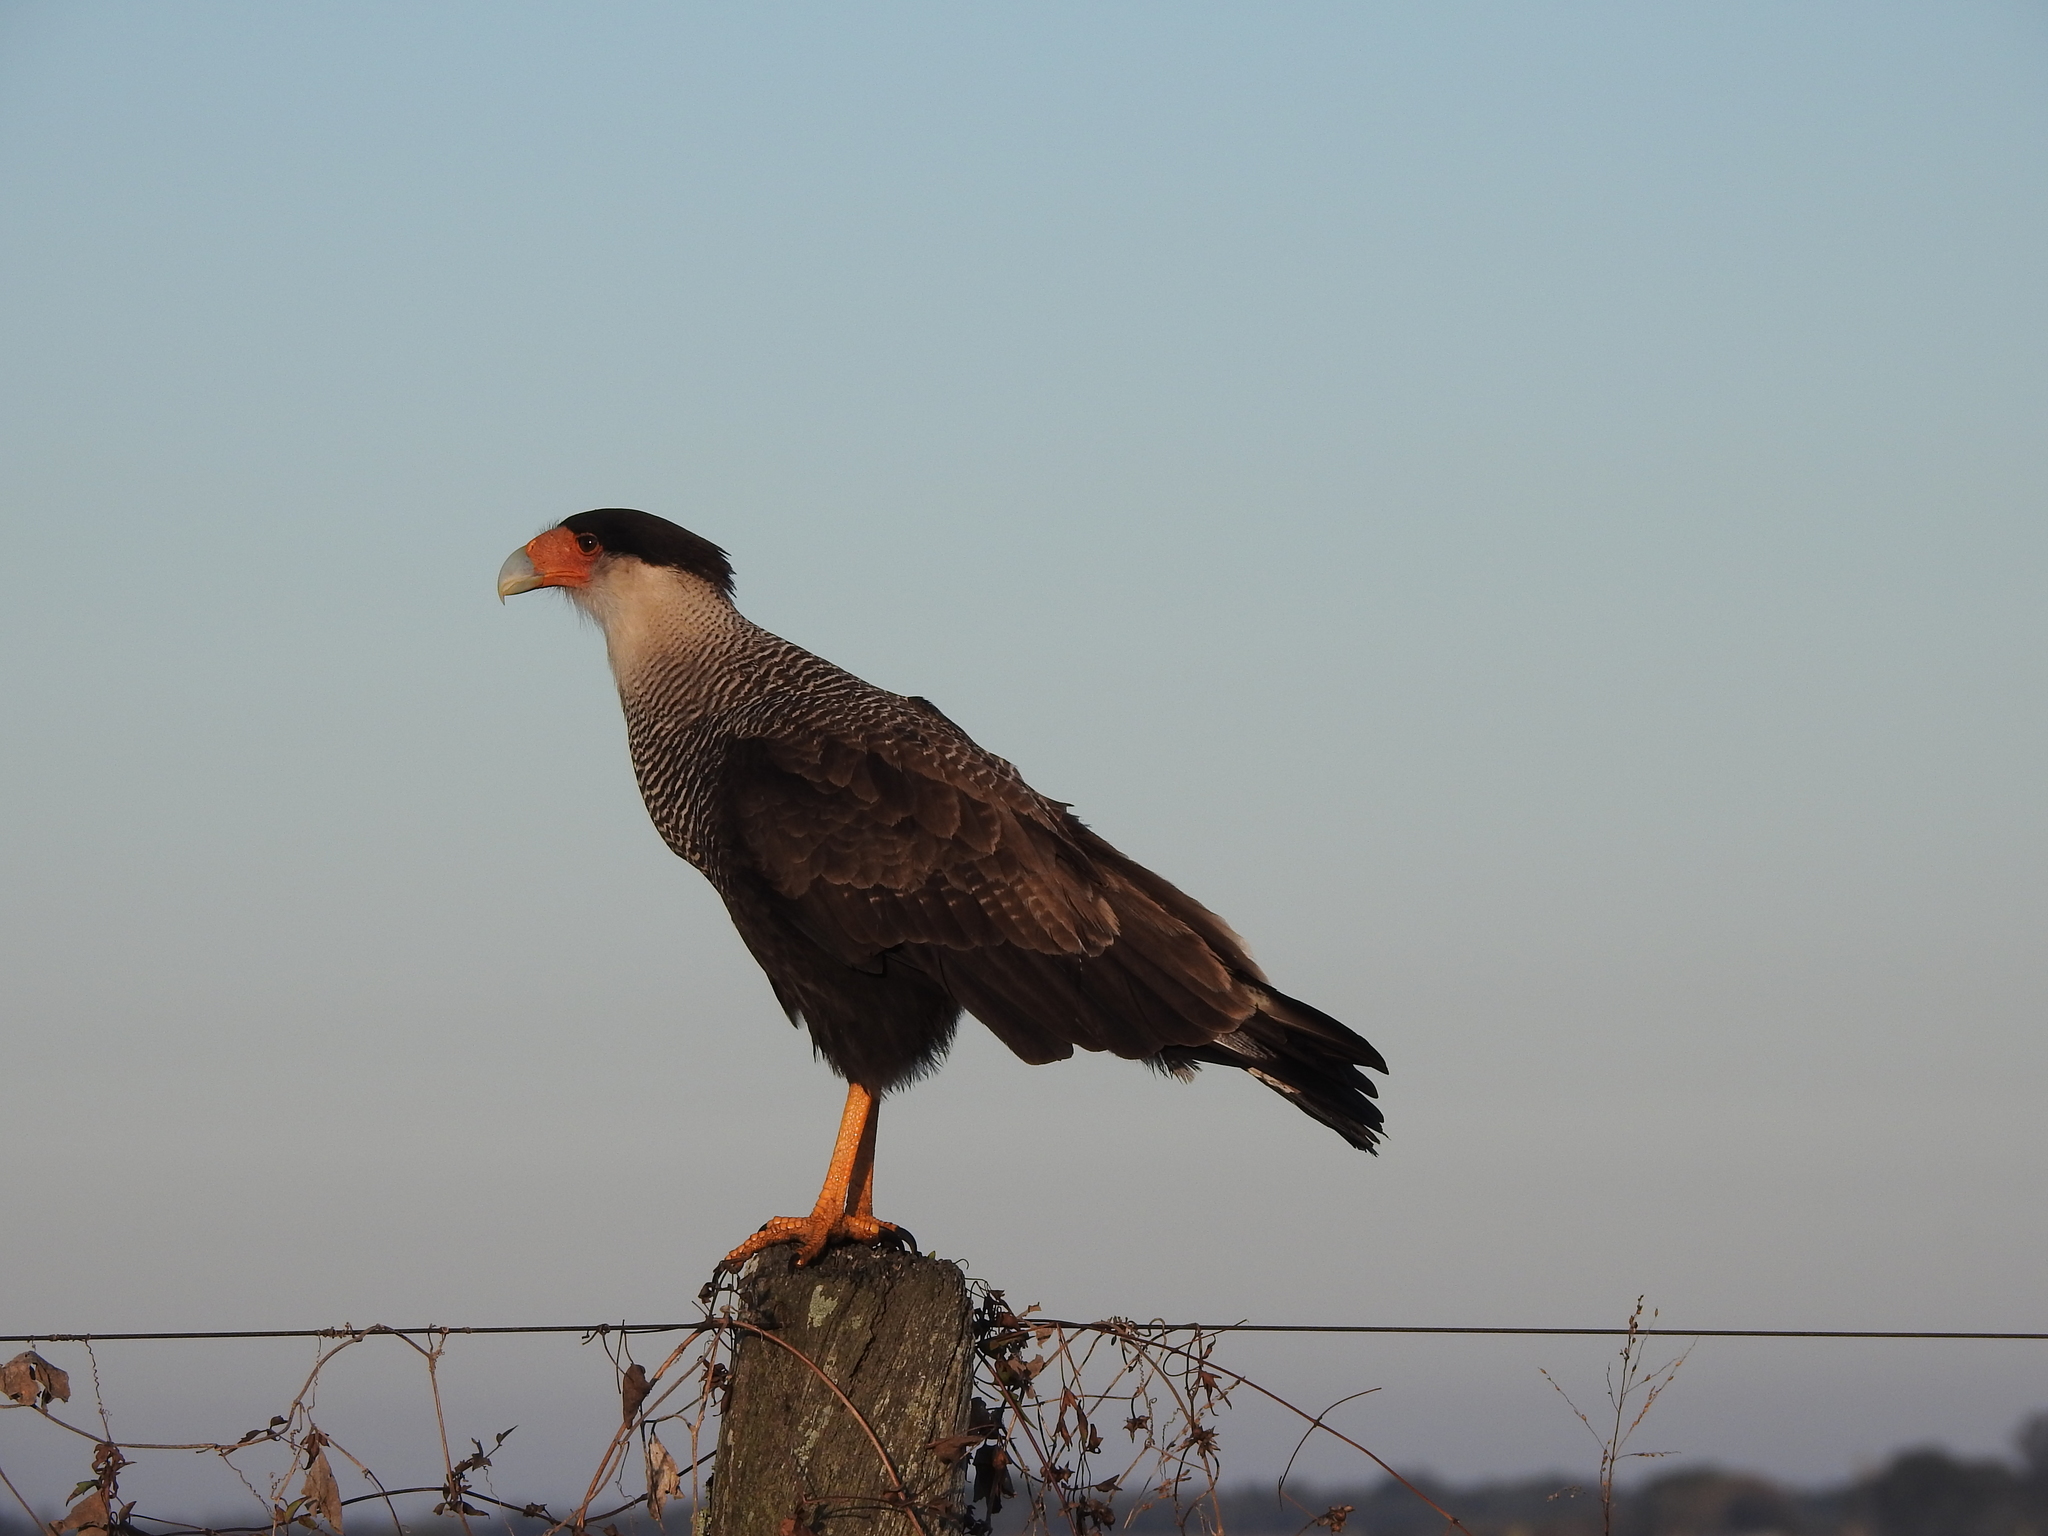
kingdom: Animalia
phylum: Chordata
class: Aves
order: Falconiformes
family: Falconidae
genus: Caracara
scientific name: Caracara plancus
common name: Southern caracara
